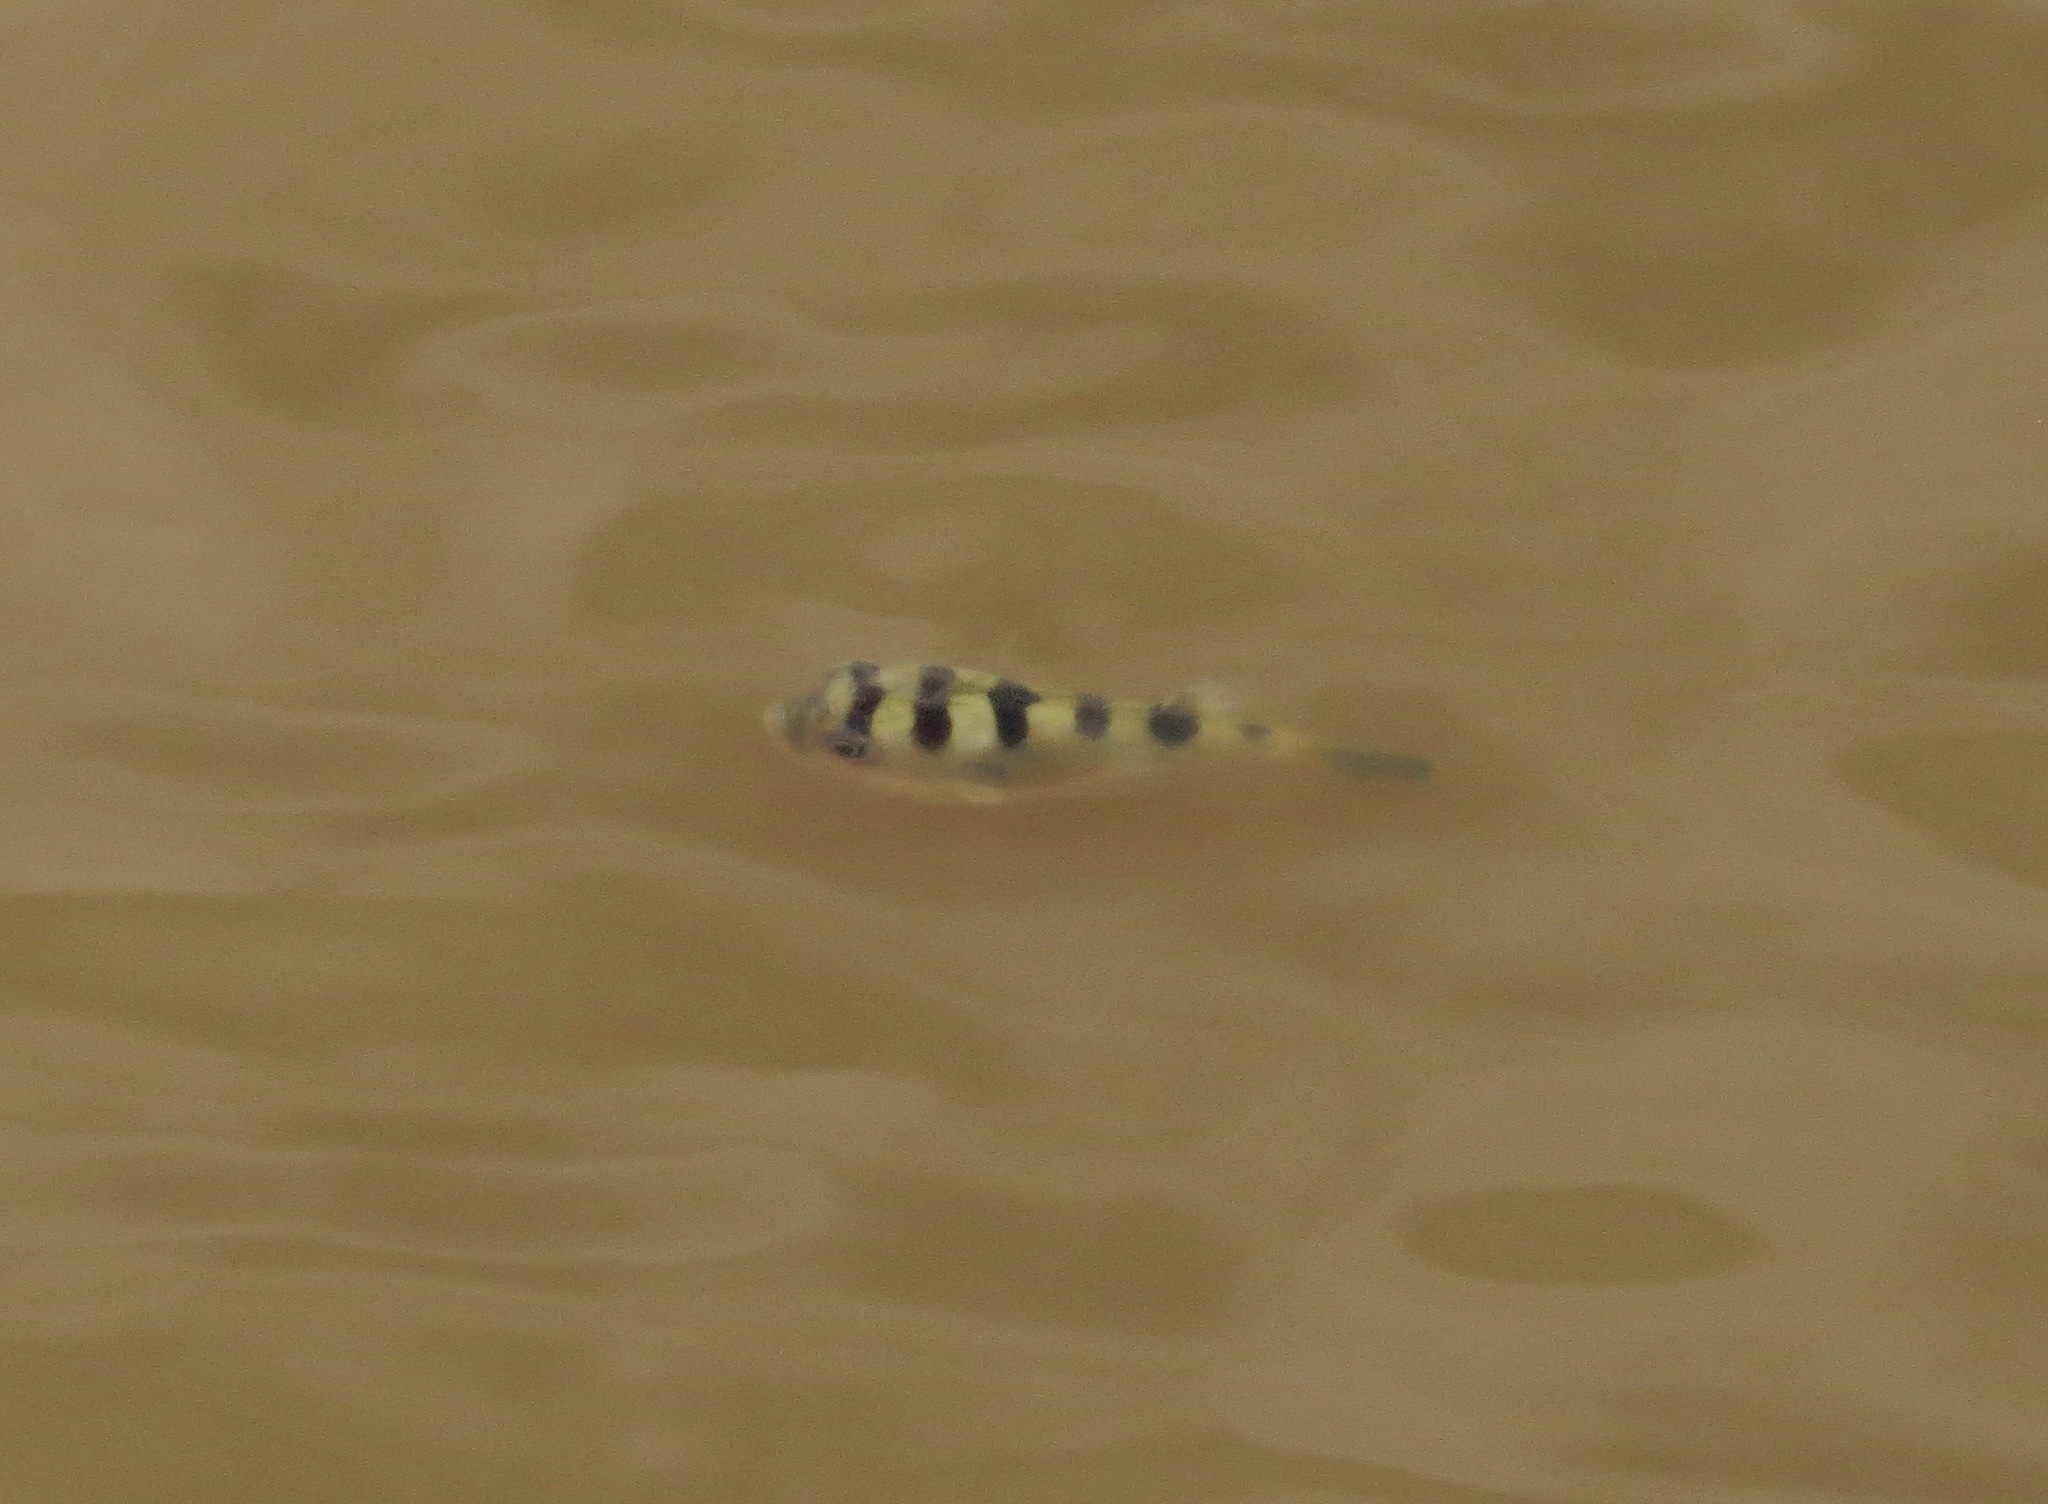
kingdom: Animalia
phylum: Chordata
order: Tetraodontiformes
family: Tetraodontidae
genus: Sphoeroides
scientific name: Sphoeroides
